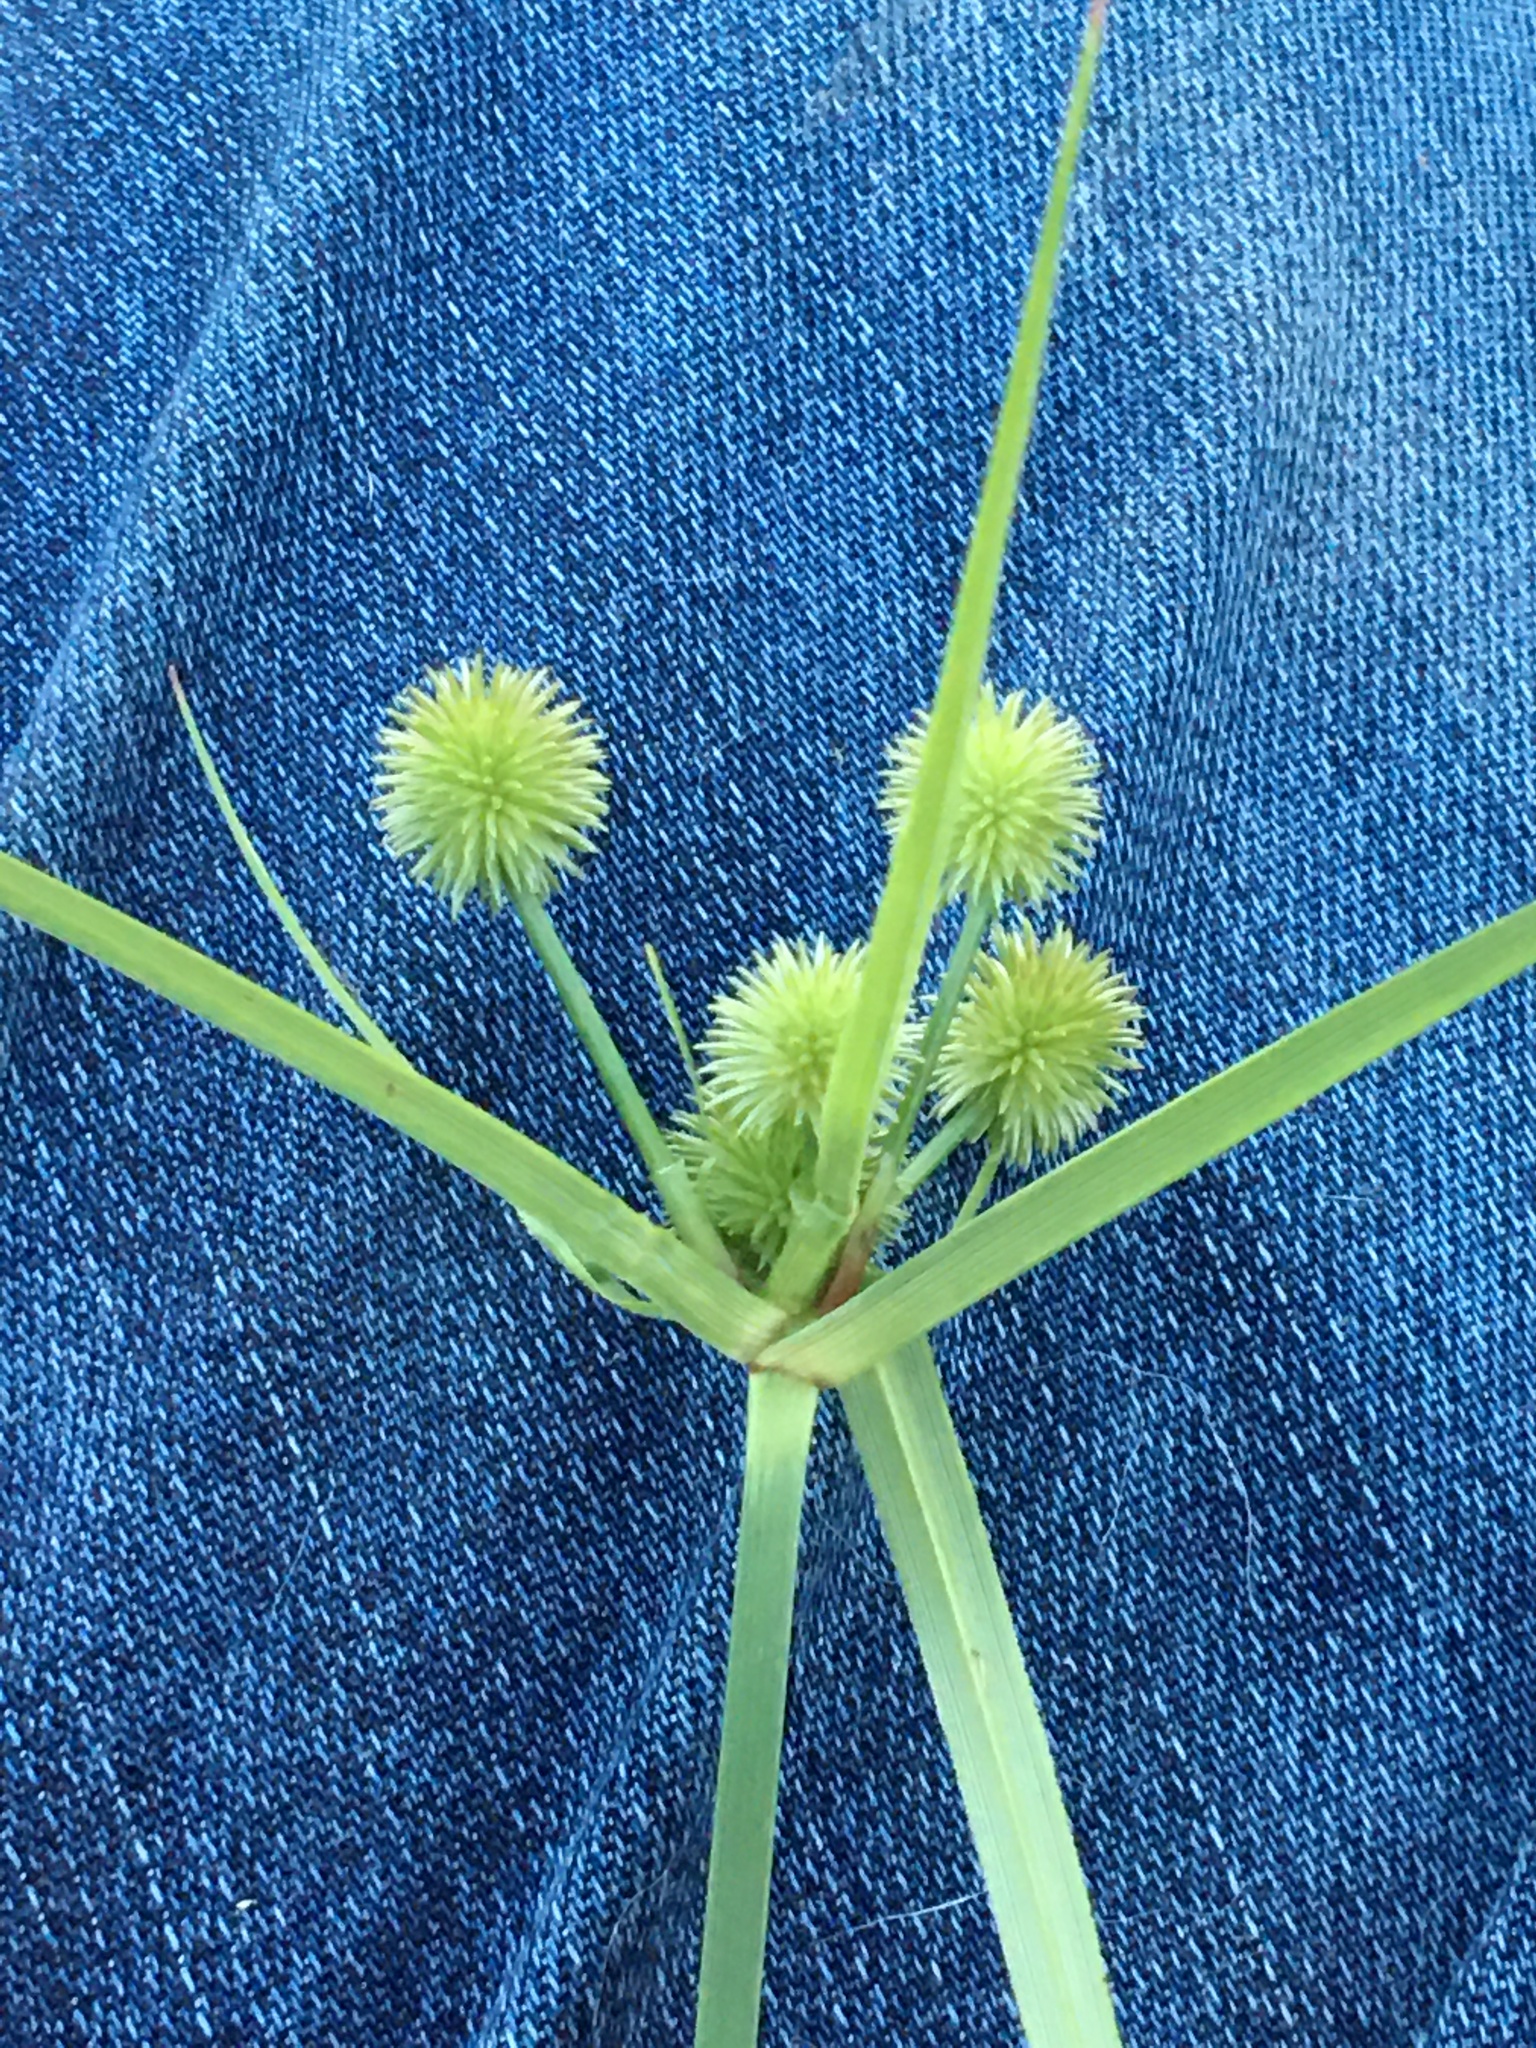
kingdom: Plantae
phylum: Tracheophyta
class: Liliopsida
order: Poales
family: Cyperaceae
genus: Cyperus
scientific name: Cyperus echinatus
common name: Teasel sedge
